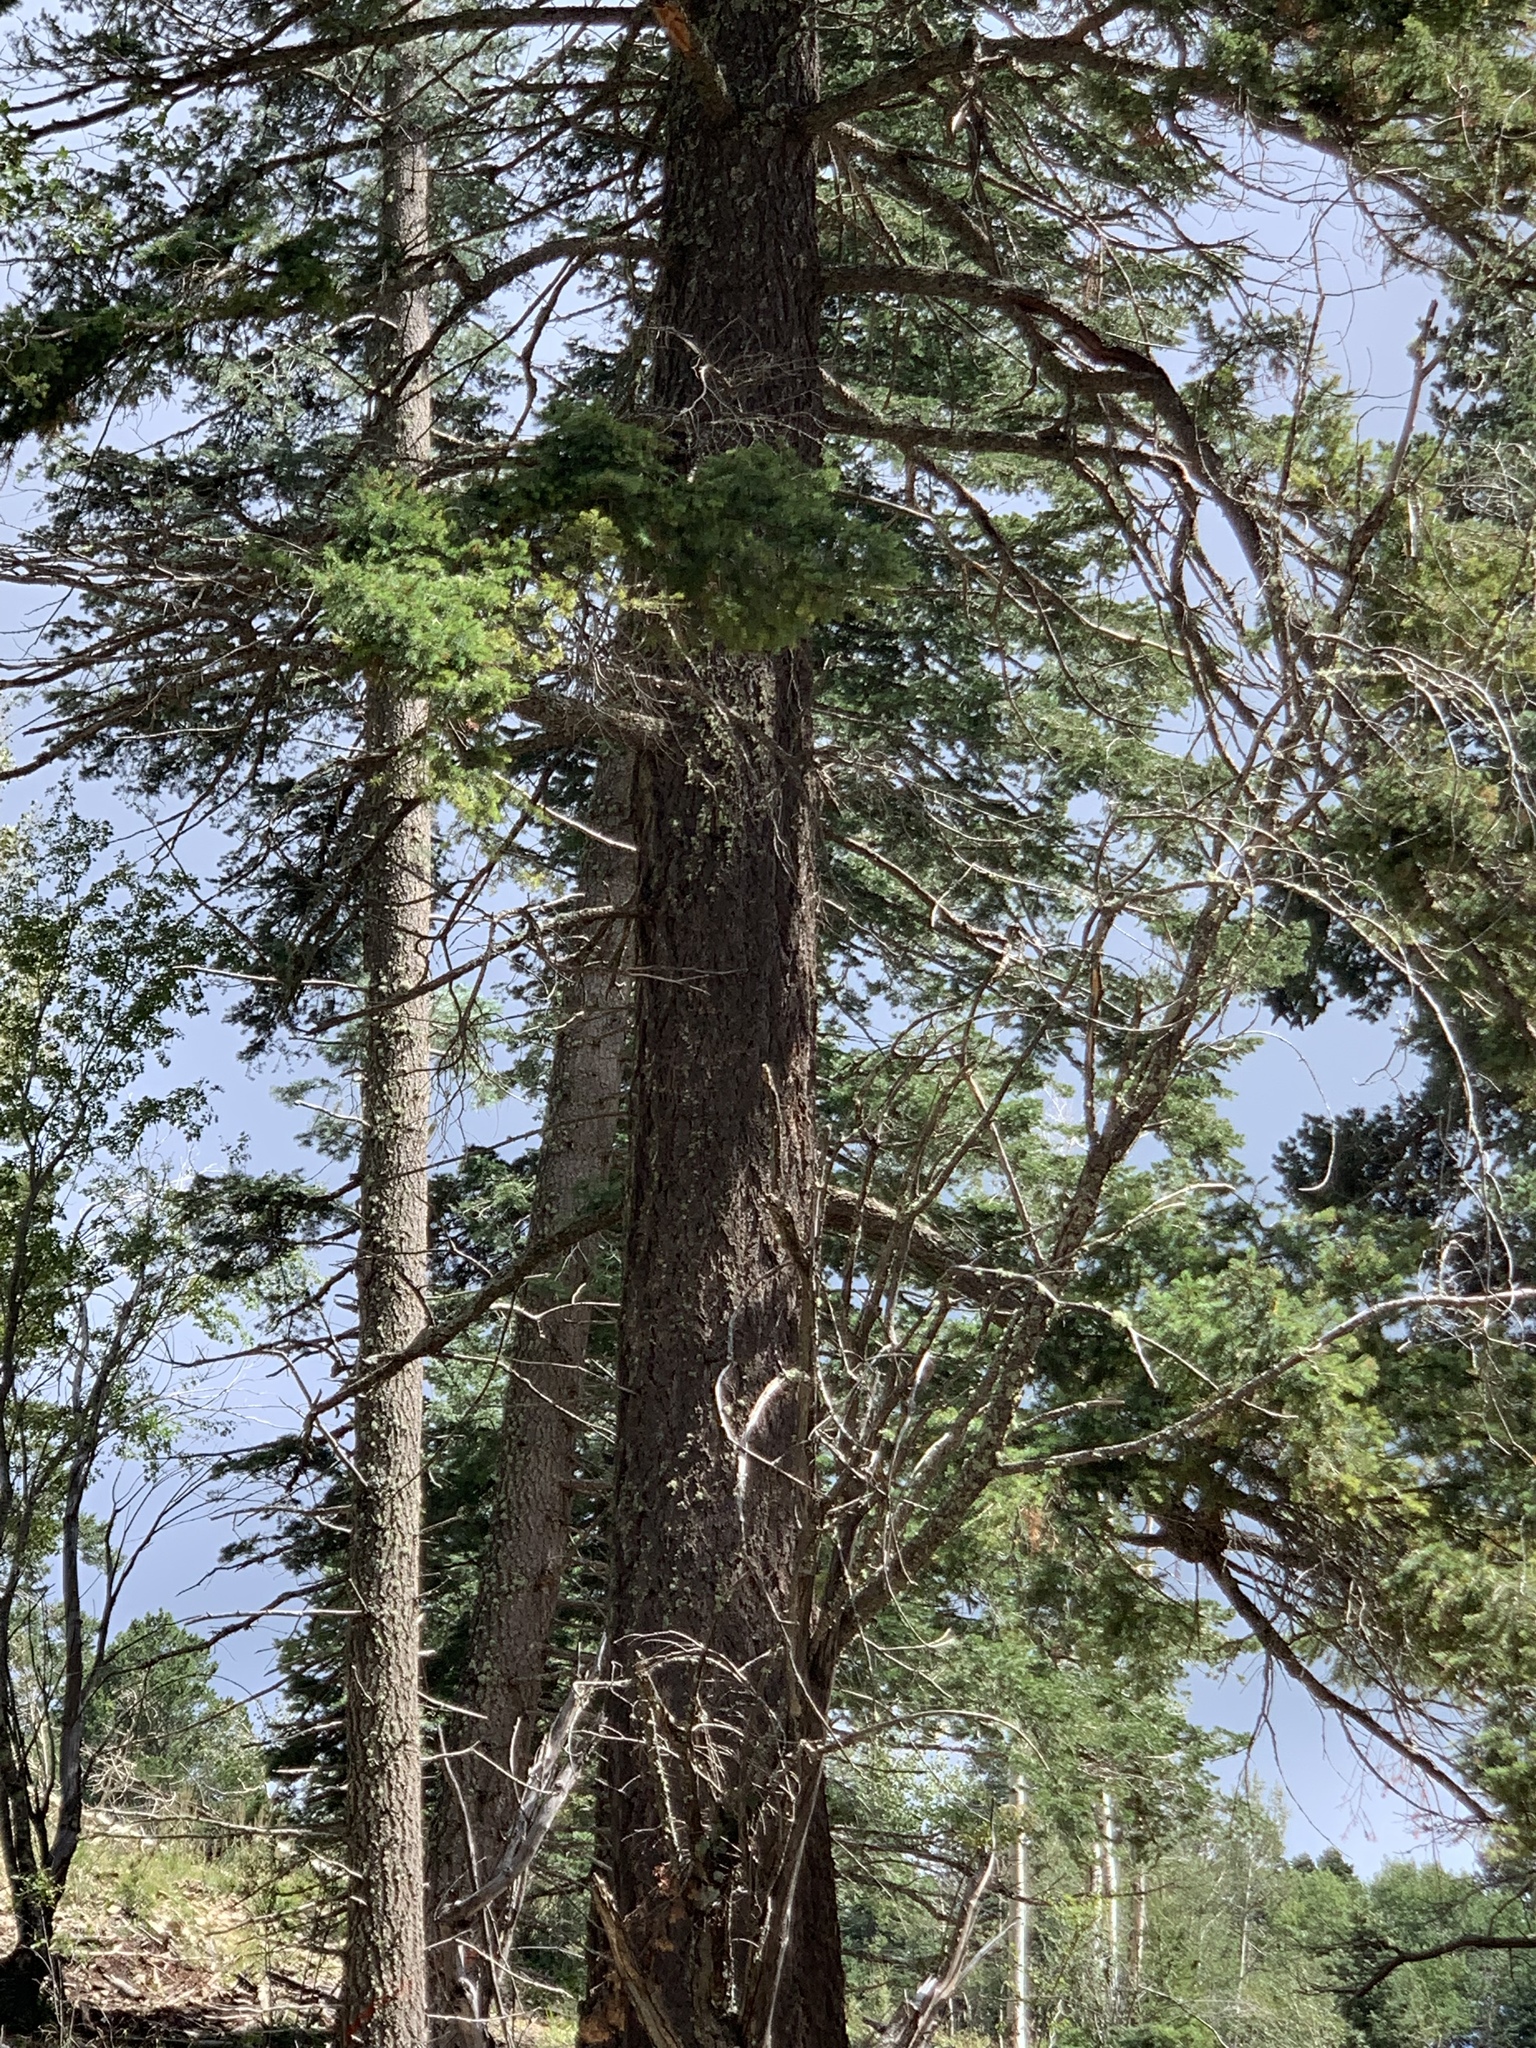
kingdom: Plantae
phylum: Tracheophyta
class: Pinopsida
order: Pinales
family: Pinaceae
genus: Pseudotsuga
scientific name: Pseudotsuga menziesii
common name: Douglas fir
